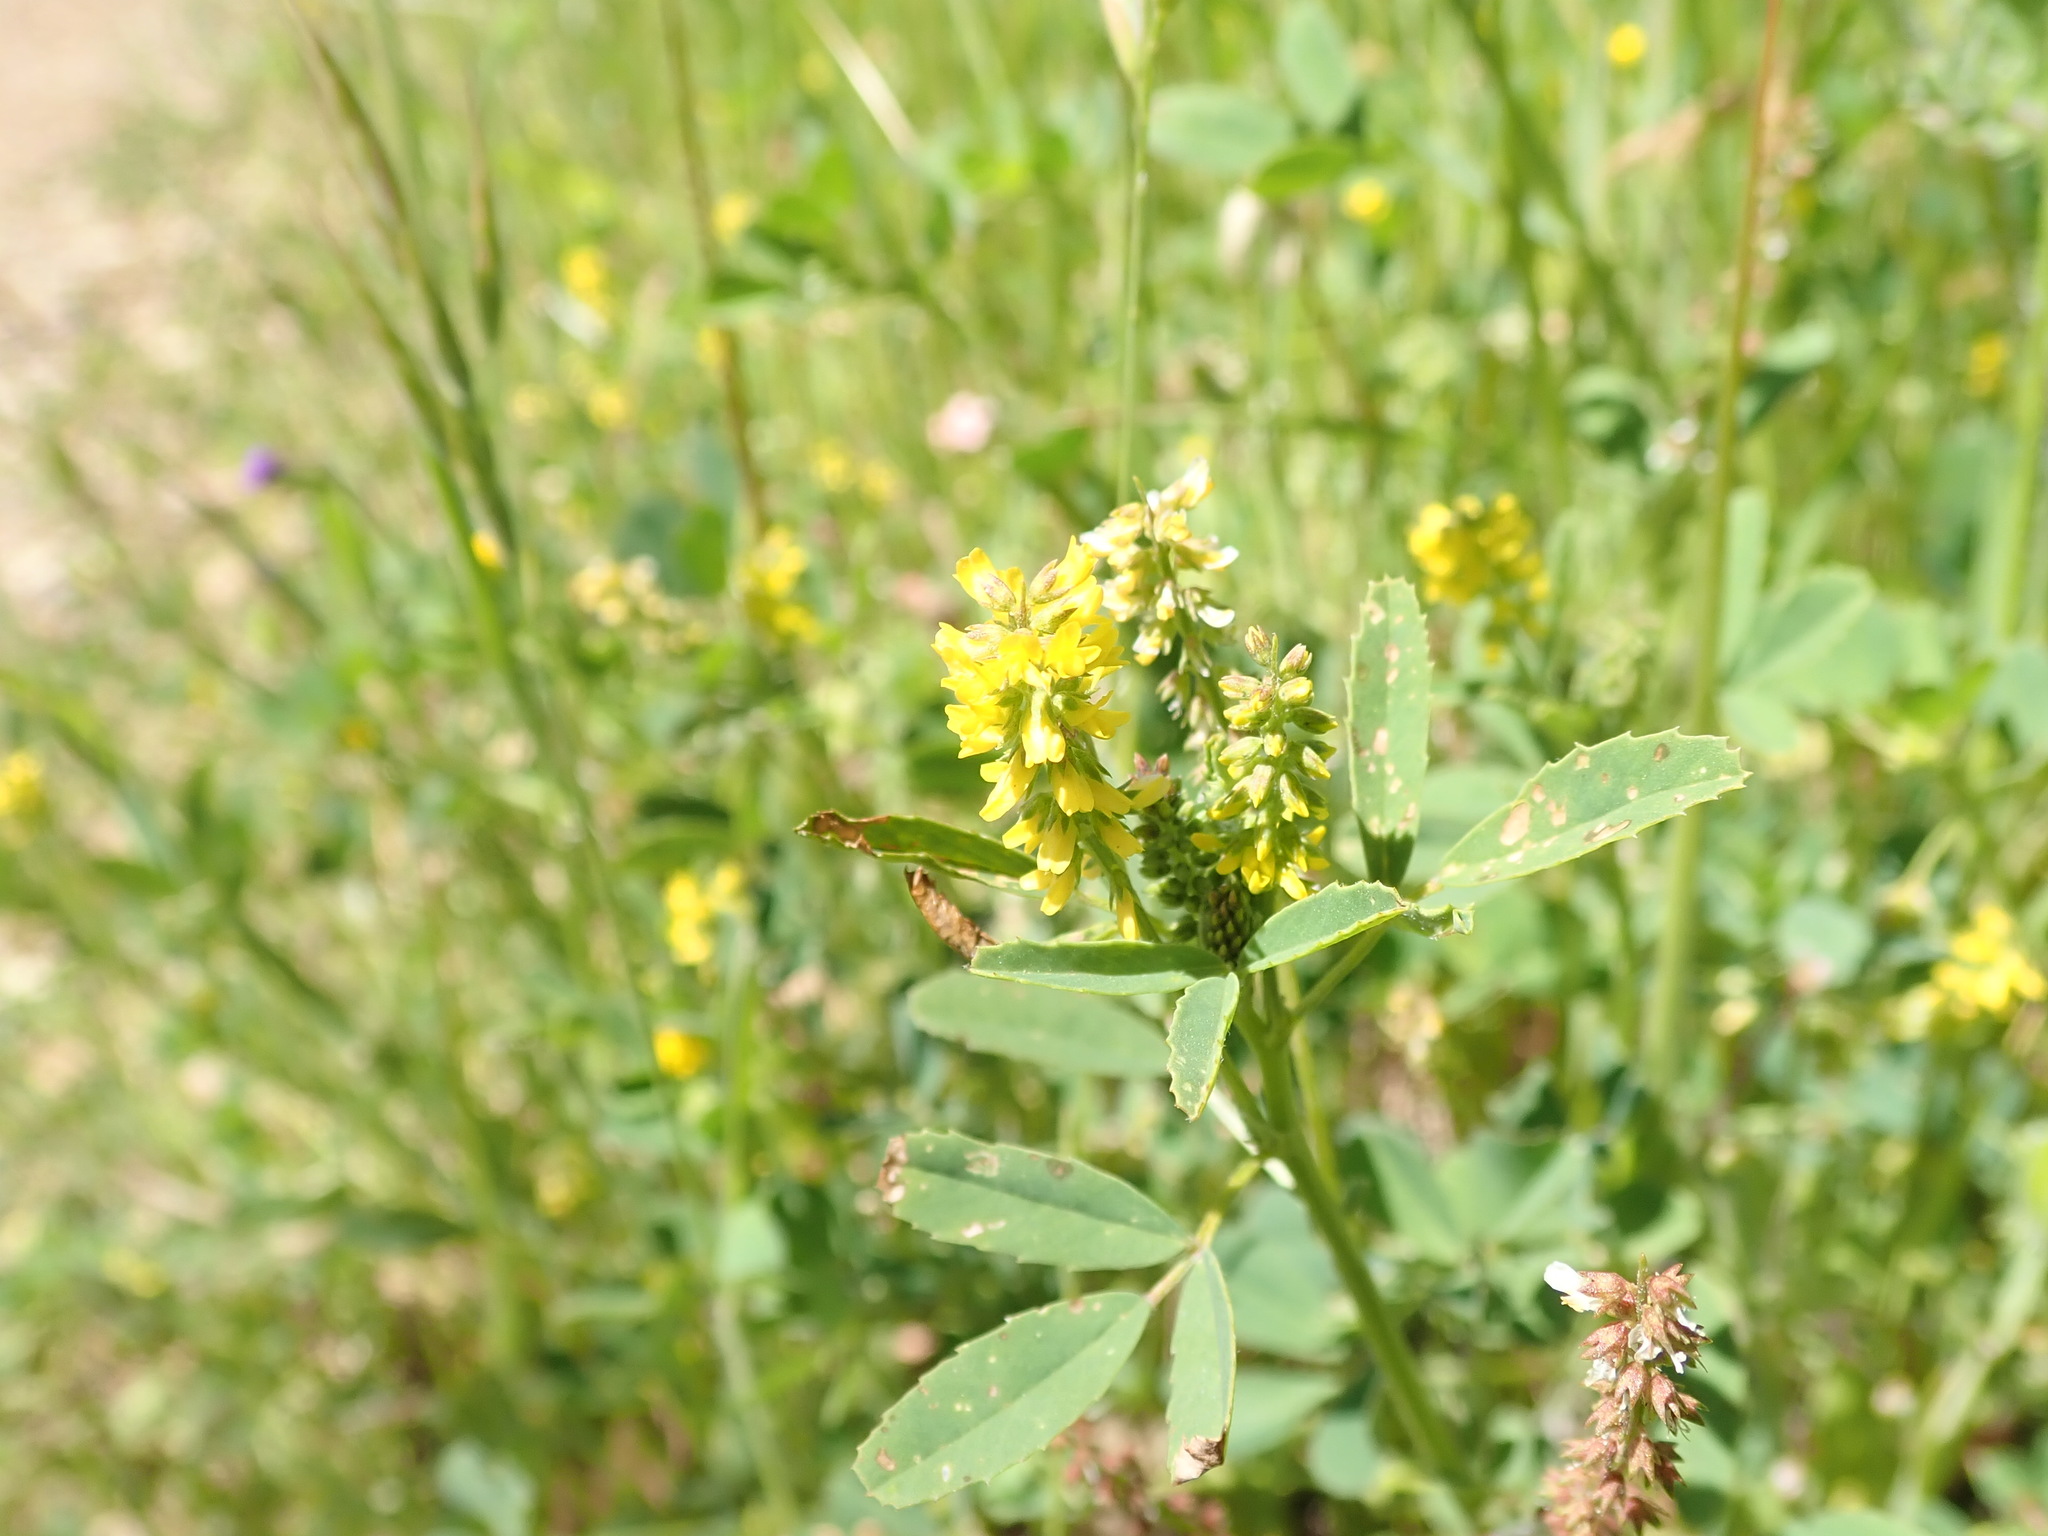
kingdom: Plantae
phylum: Tracheophyta
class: Magnoliopsida
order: Fabales
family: Fabaceae
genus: Melilotus
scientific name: Melilotus indicus
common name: Small melilot
